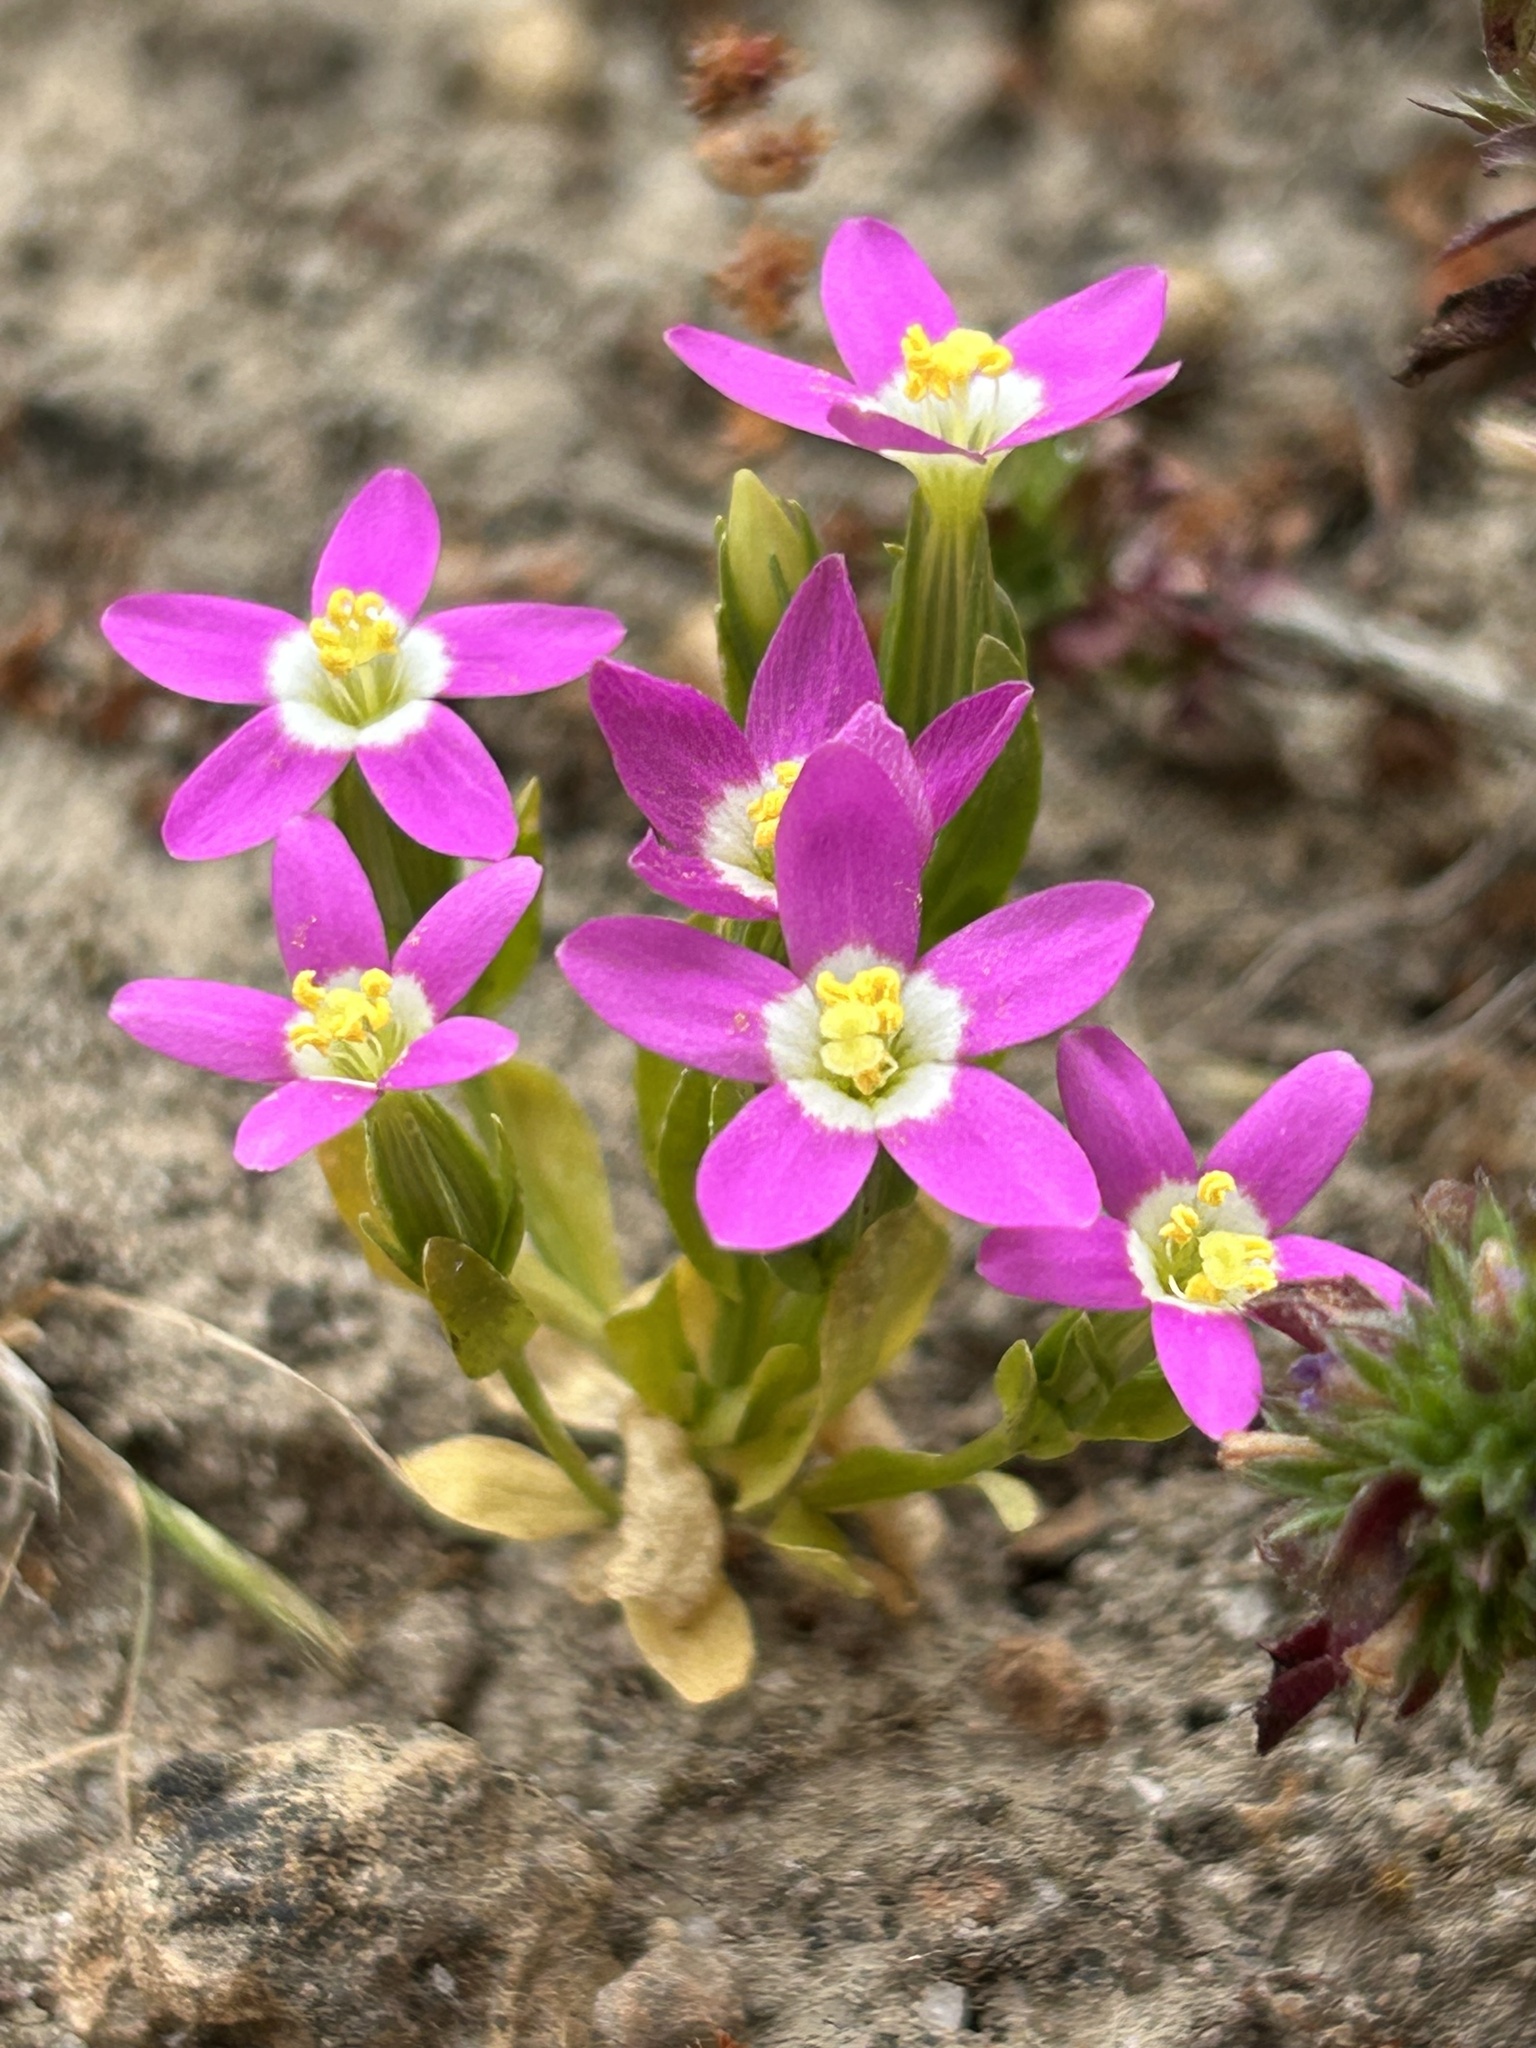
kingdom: Plantae
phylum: Tracheophyta
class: Magnoliopsida
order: Gentianales
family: Gentianaceae
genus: Zeltnera
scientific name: Zeltnera davyi
